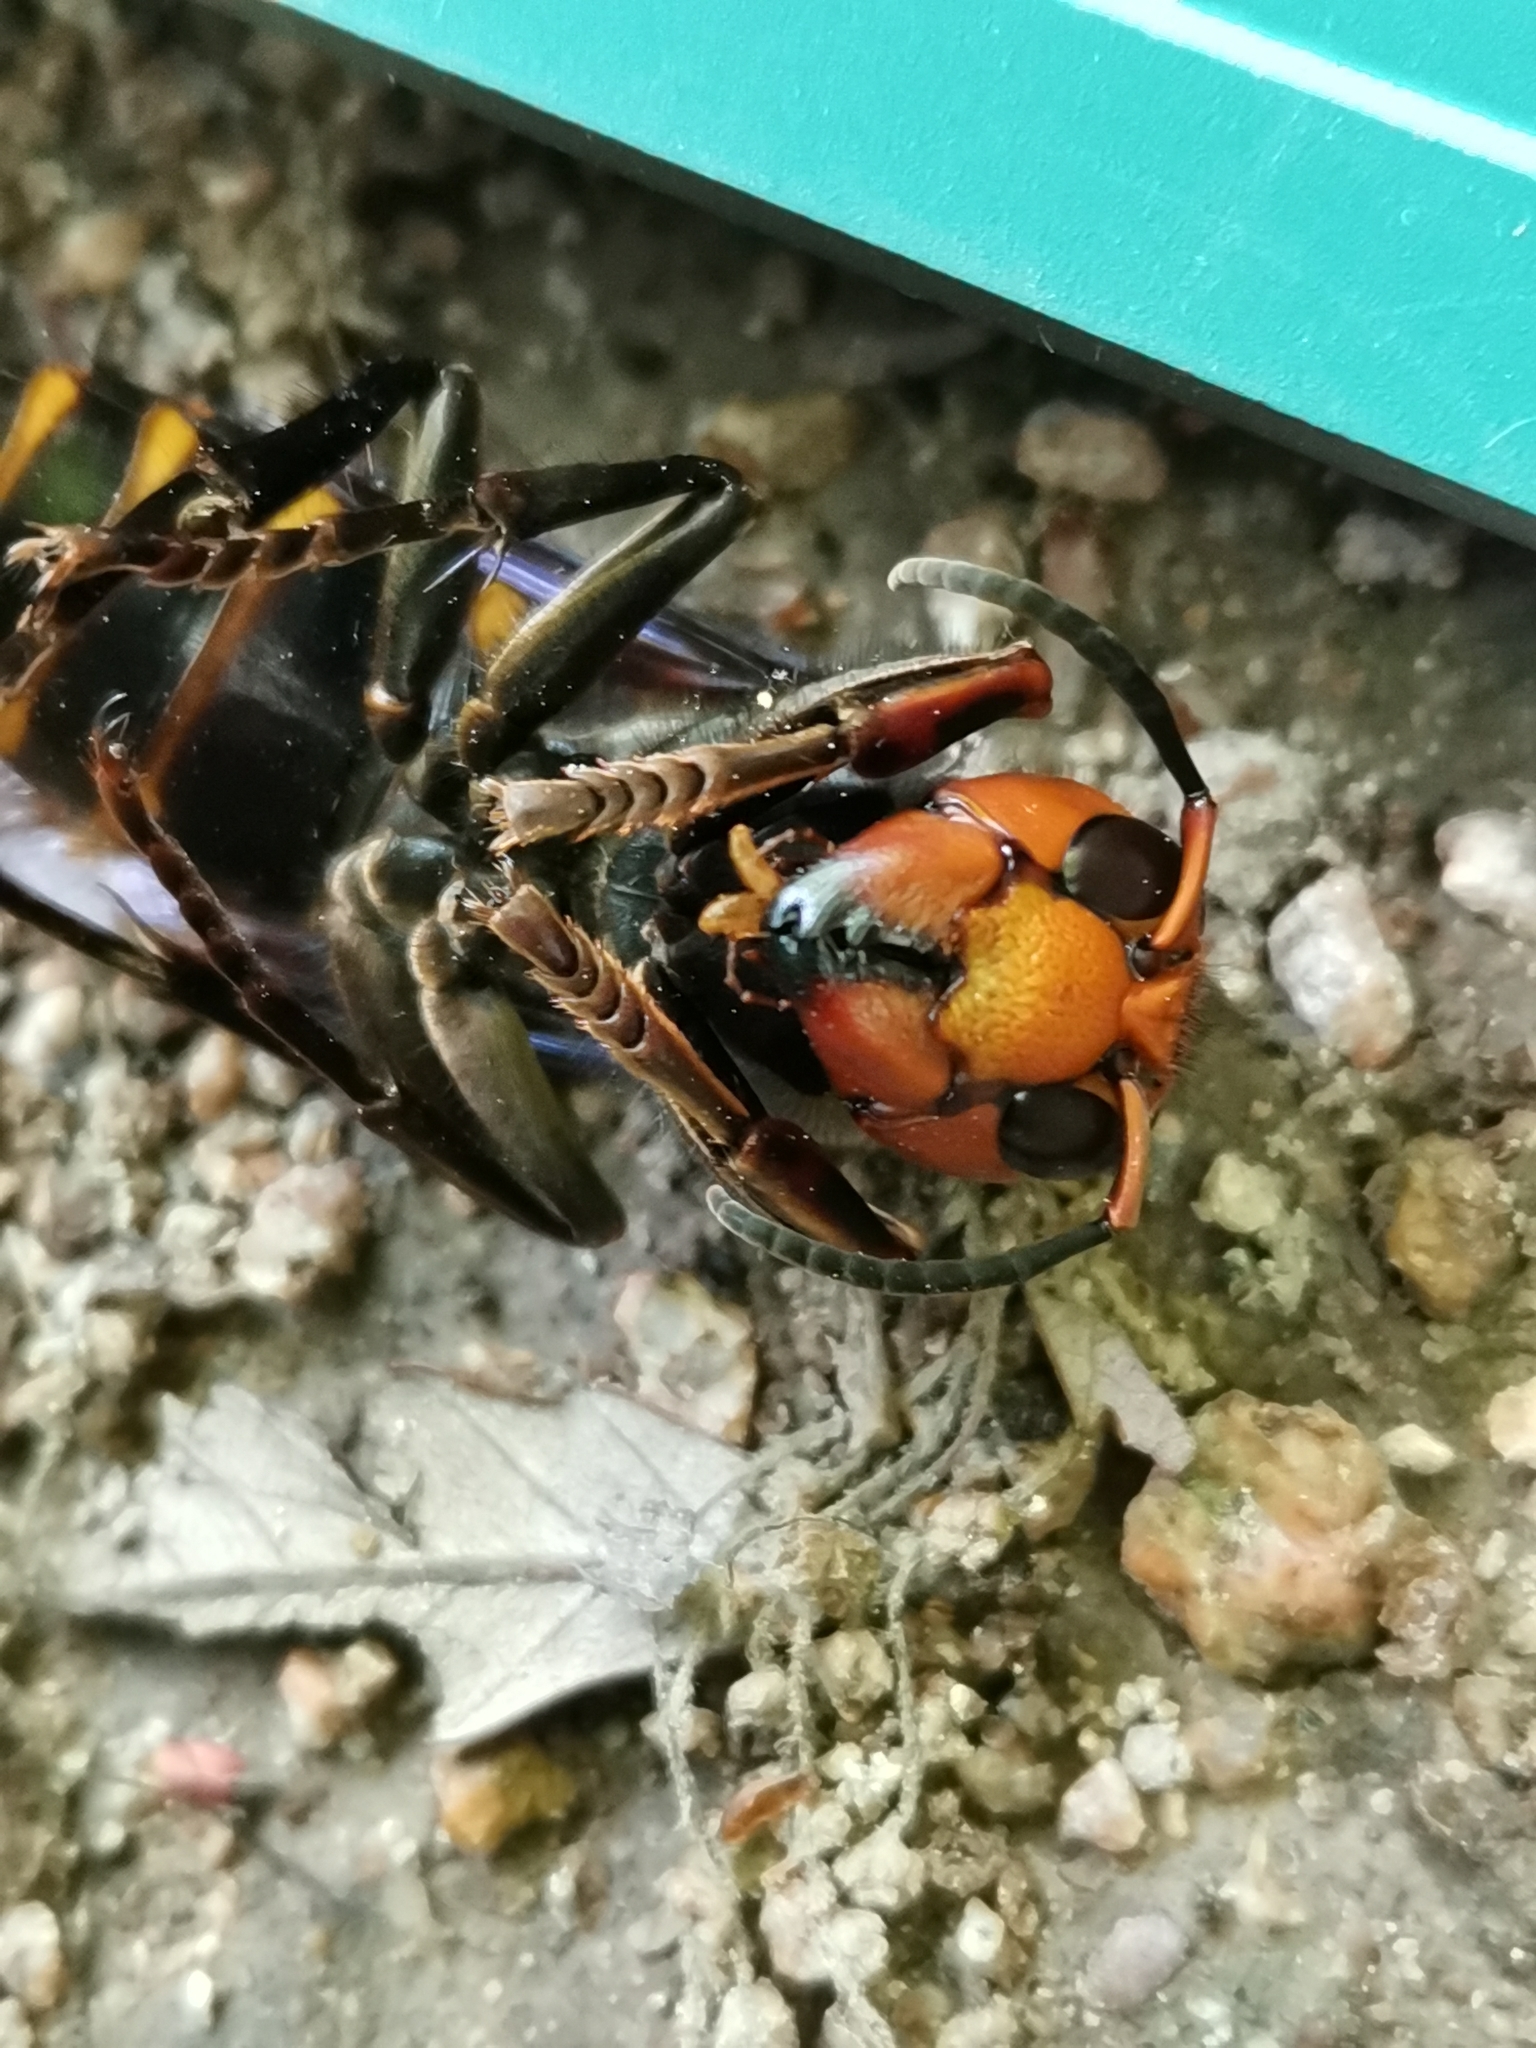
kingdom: Animalia
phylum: Arthropoda
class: Insecta
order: Hymenoptera
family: Vespidae
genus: Vespa
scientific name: Vespa mandarinia
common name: Asian giant hornet
